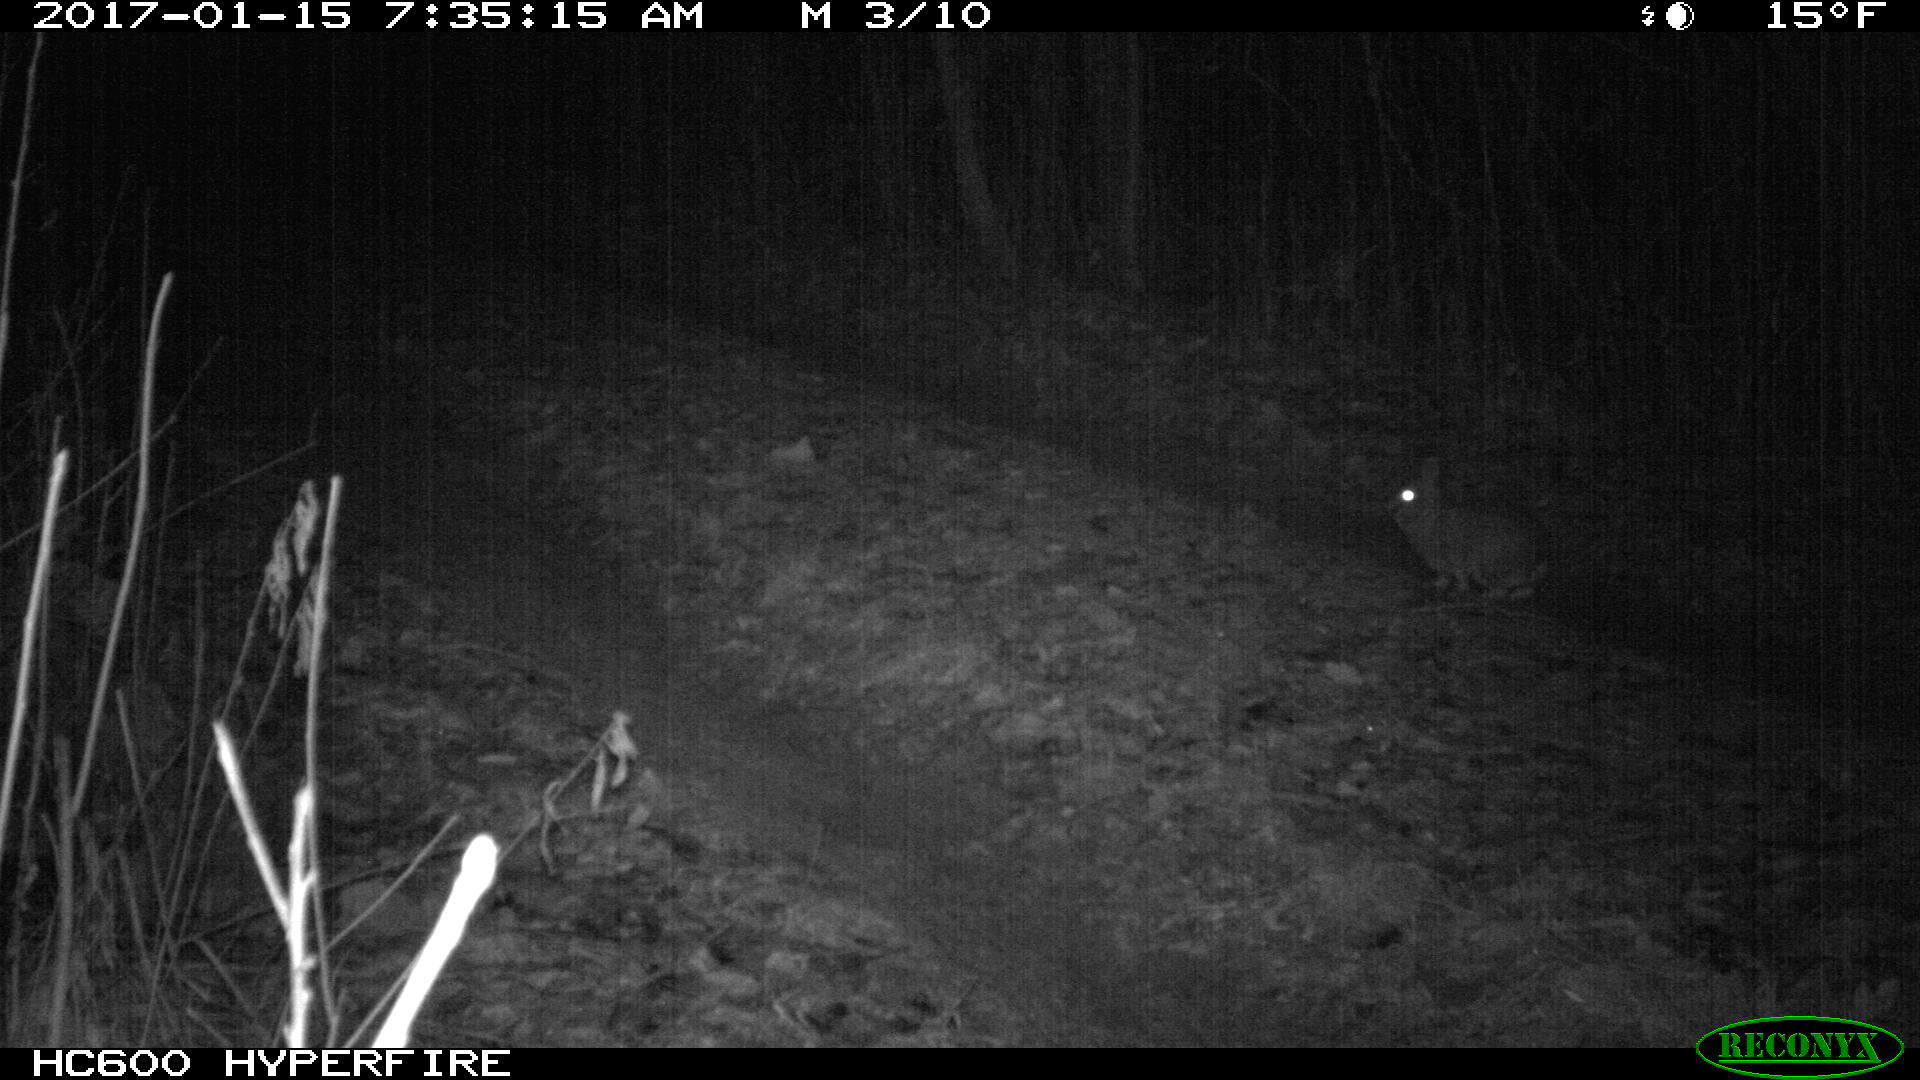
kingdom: Animalia
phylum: Chordata
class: Mammalia
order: Lagomorpha
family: Leporidae
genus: Sylvilagus
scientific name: Sylvilagus floridanus
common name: Eastern cottontail
